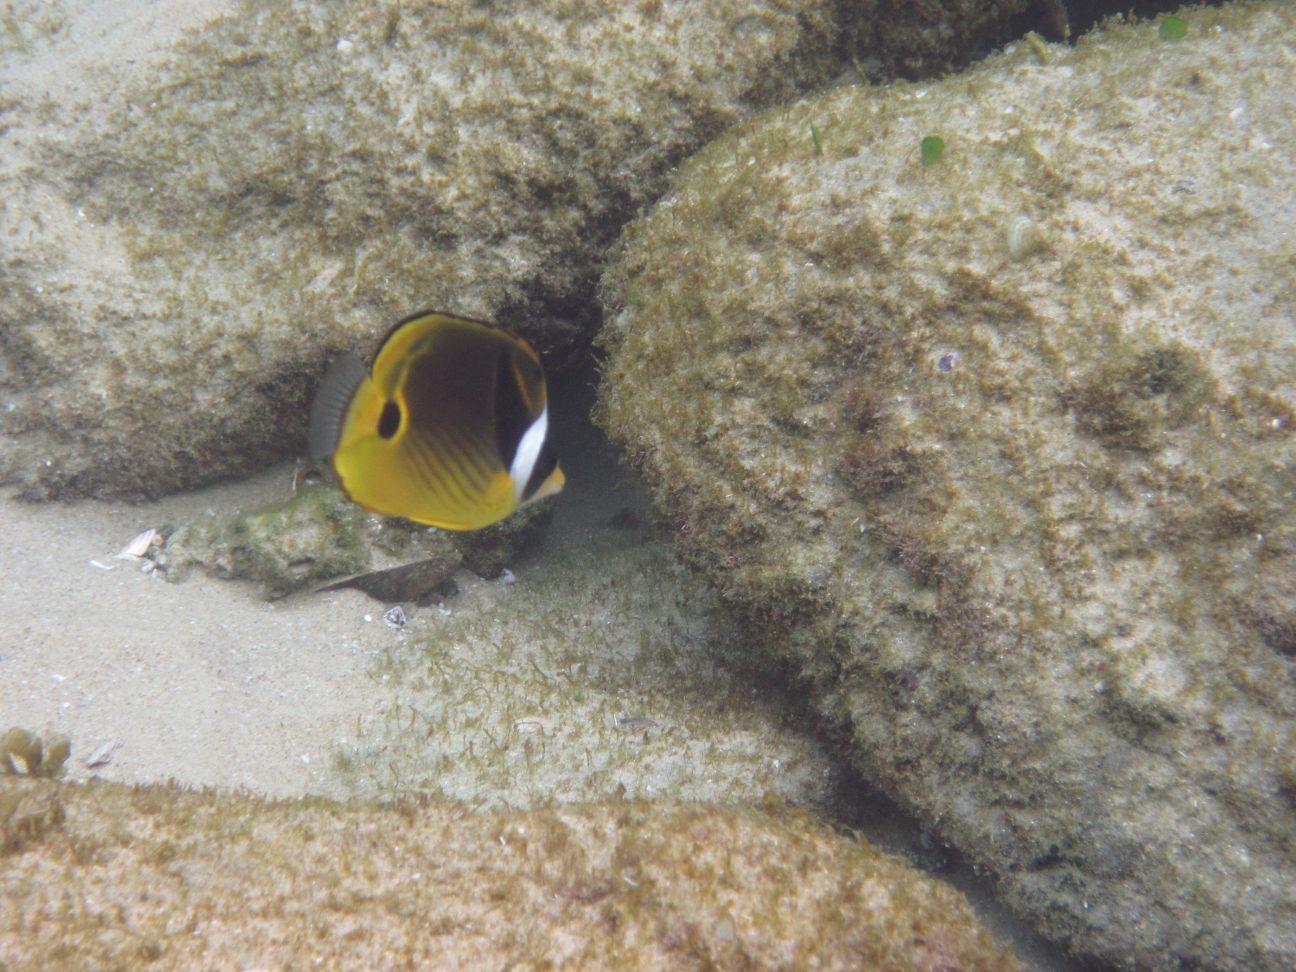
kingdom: Animalia
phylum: Chordata
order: Perciformes
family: Chaetodontidae
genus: Chaetodon
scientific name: Chaetodon lunula
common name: Raccoon butterflyfish
